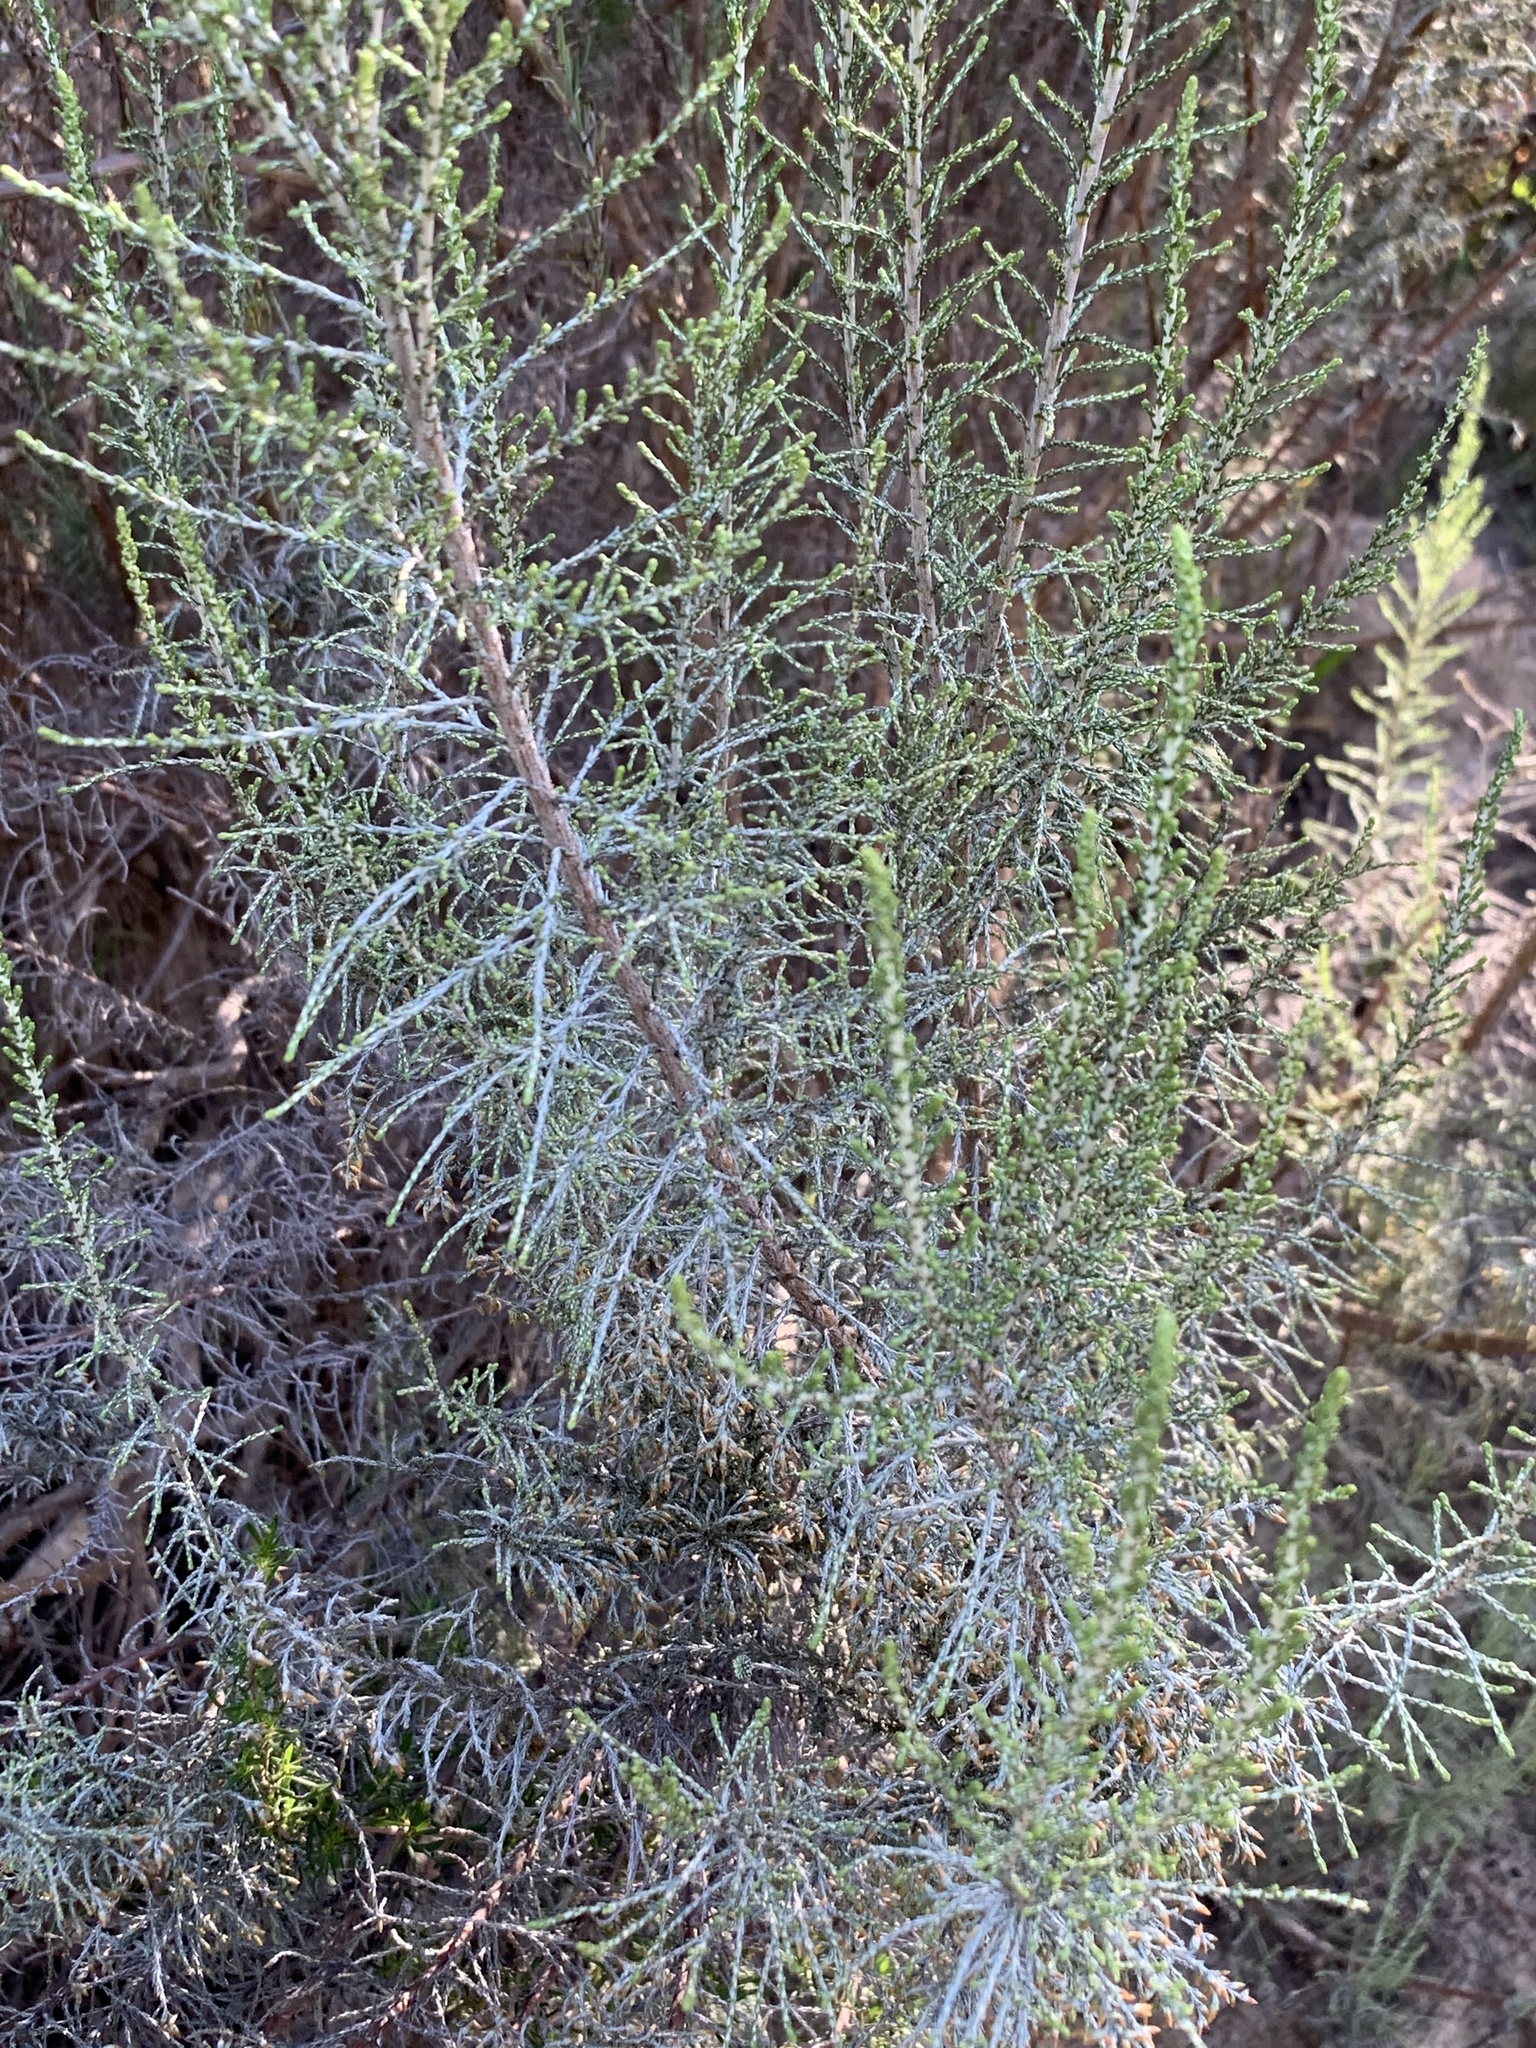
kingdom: Plantae
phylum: Tracheophyta
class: Magnoliopsida
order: Asterales
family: Asteraceae
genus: Dicerothamnus
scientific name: Dicerothamnus rhinocerotis
